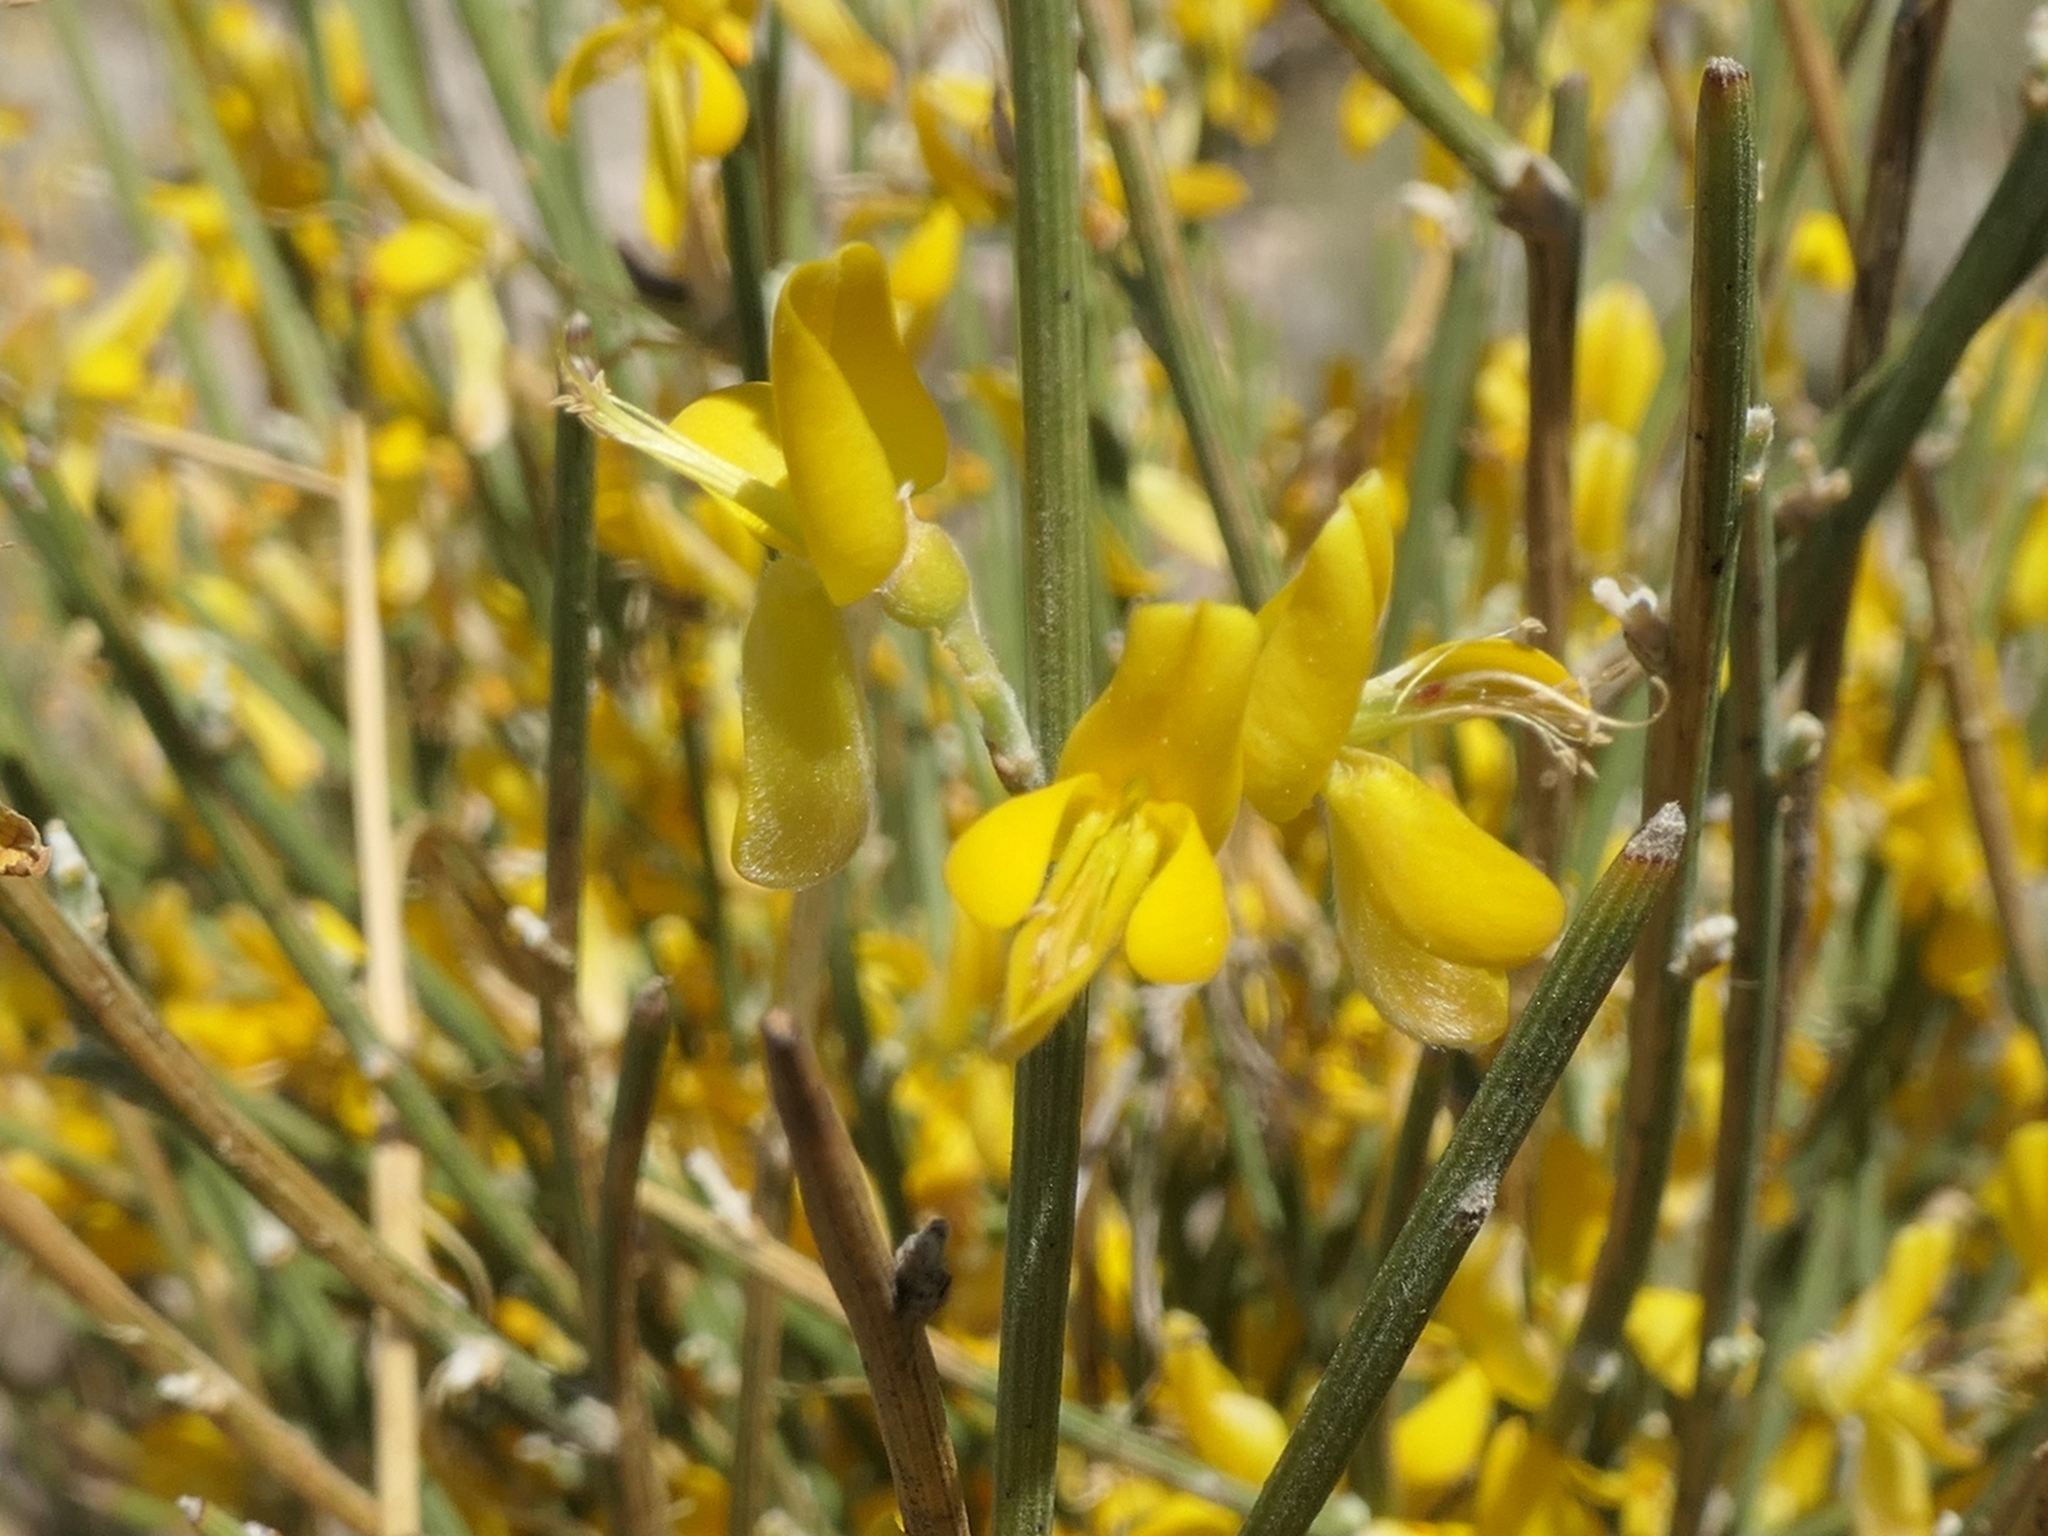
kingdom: Plantae
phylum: Tracheophyta
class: Magnoliopsida
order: Fabales
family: Fabaceae
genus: Genista
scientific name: Genista spartioides
